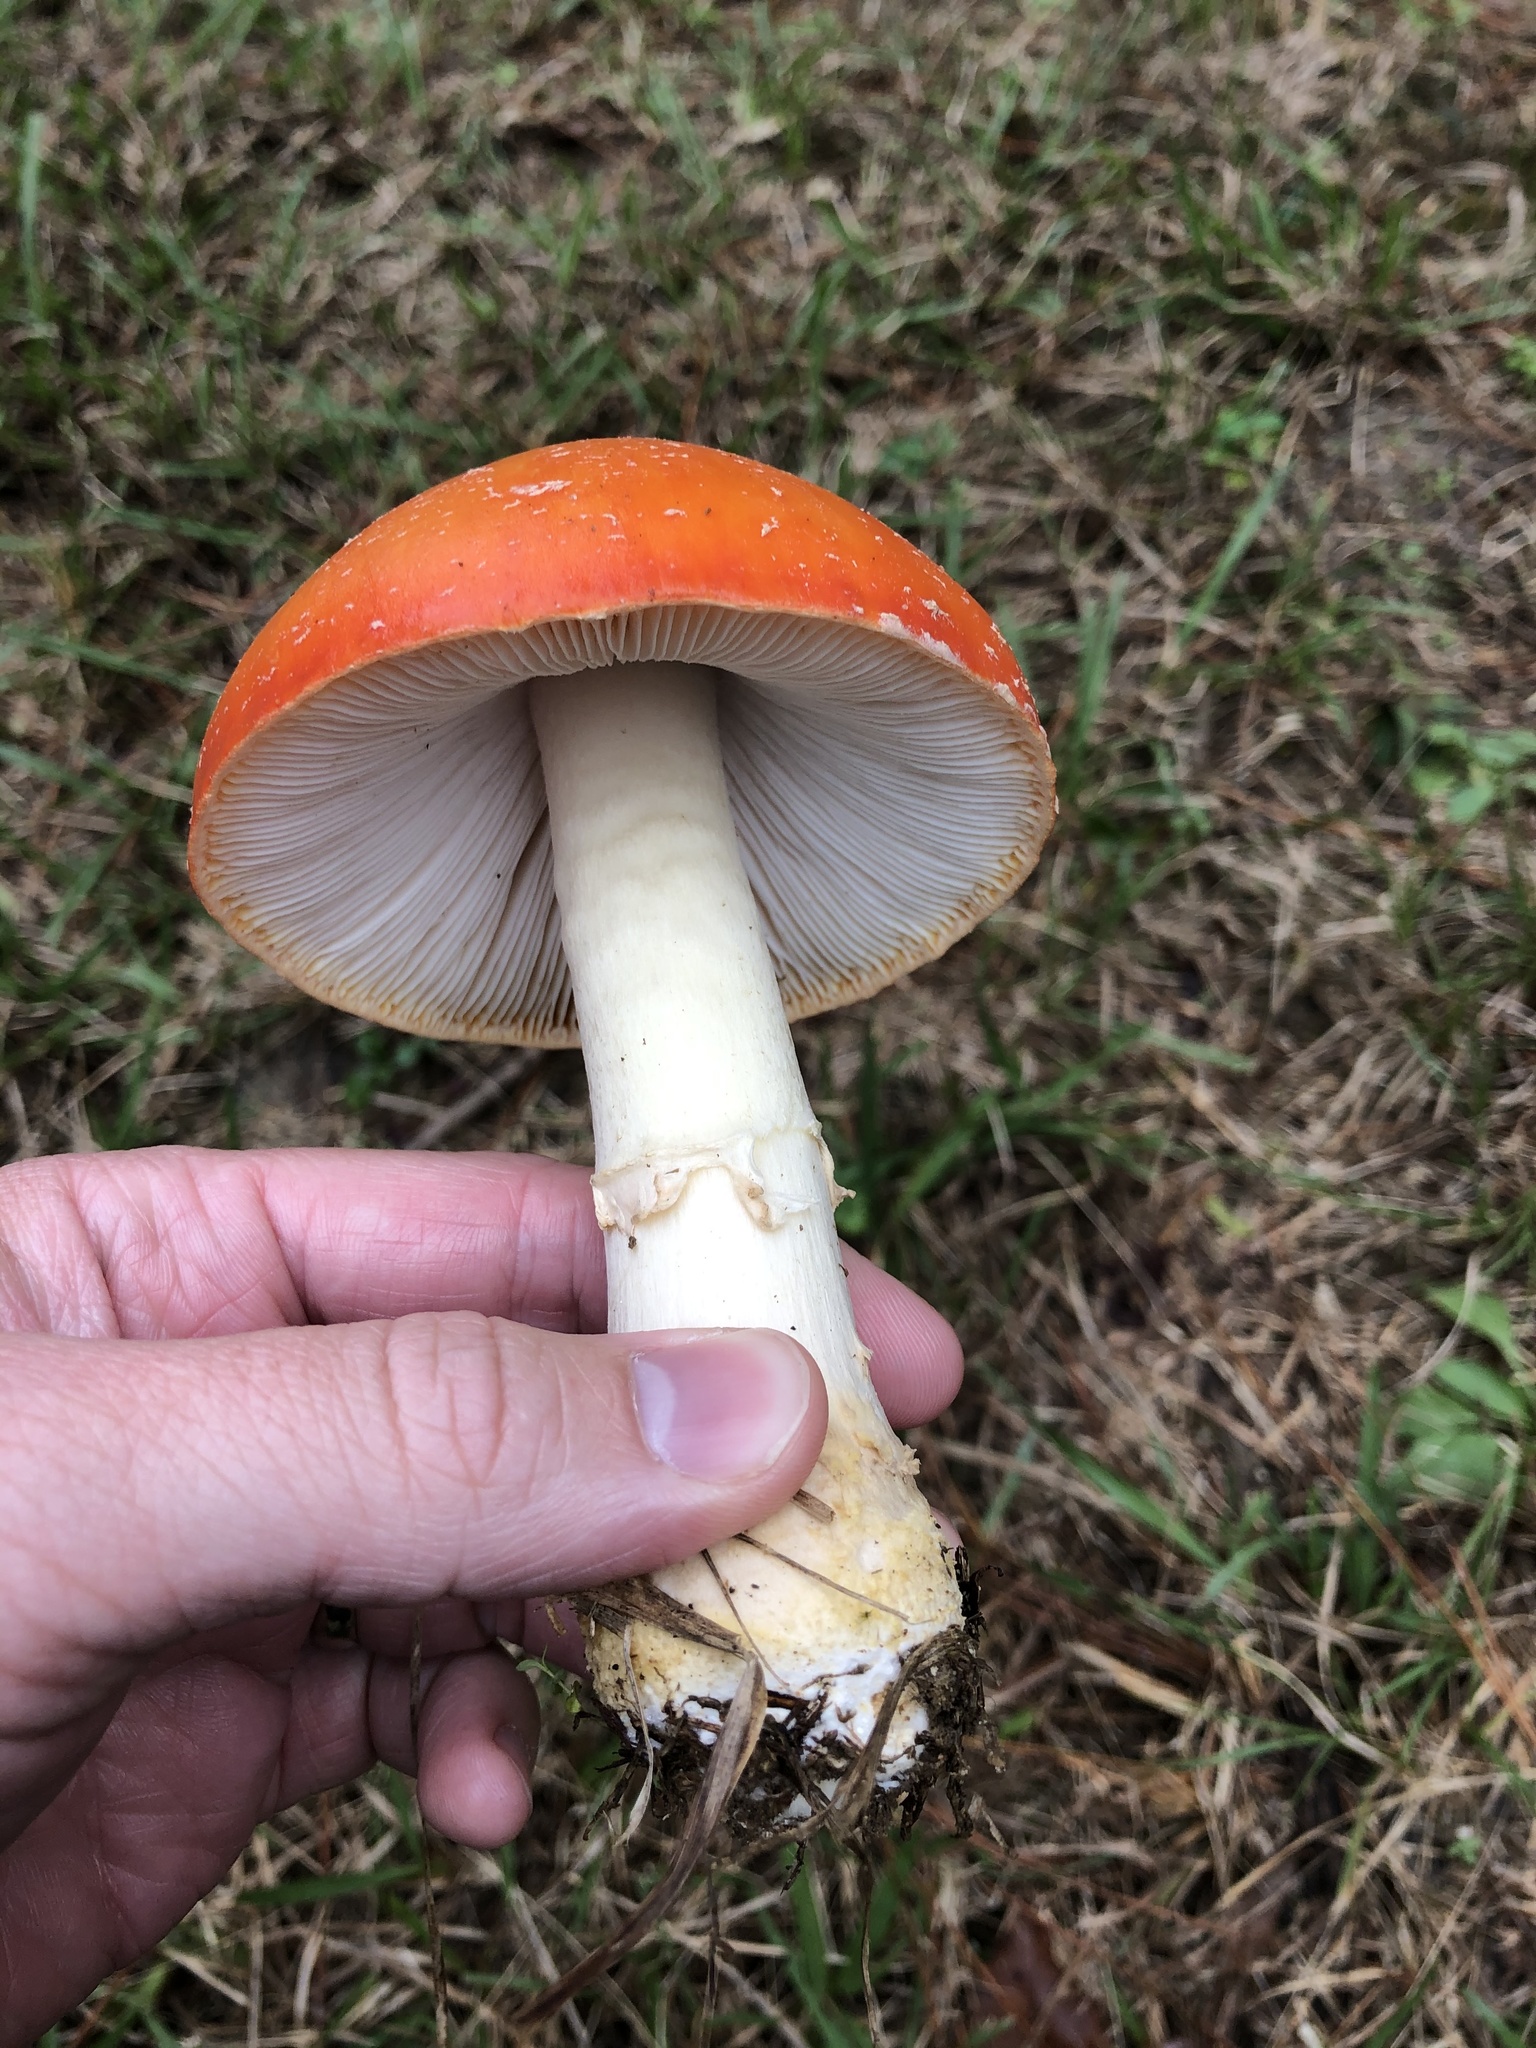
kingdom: Fungi
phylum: Basidiomycota
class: Agaricomycetes
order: Agaricales
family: Amanitaceae
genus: Amanita
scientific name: Amanita persicina
